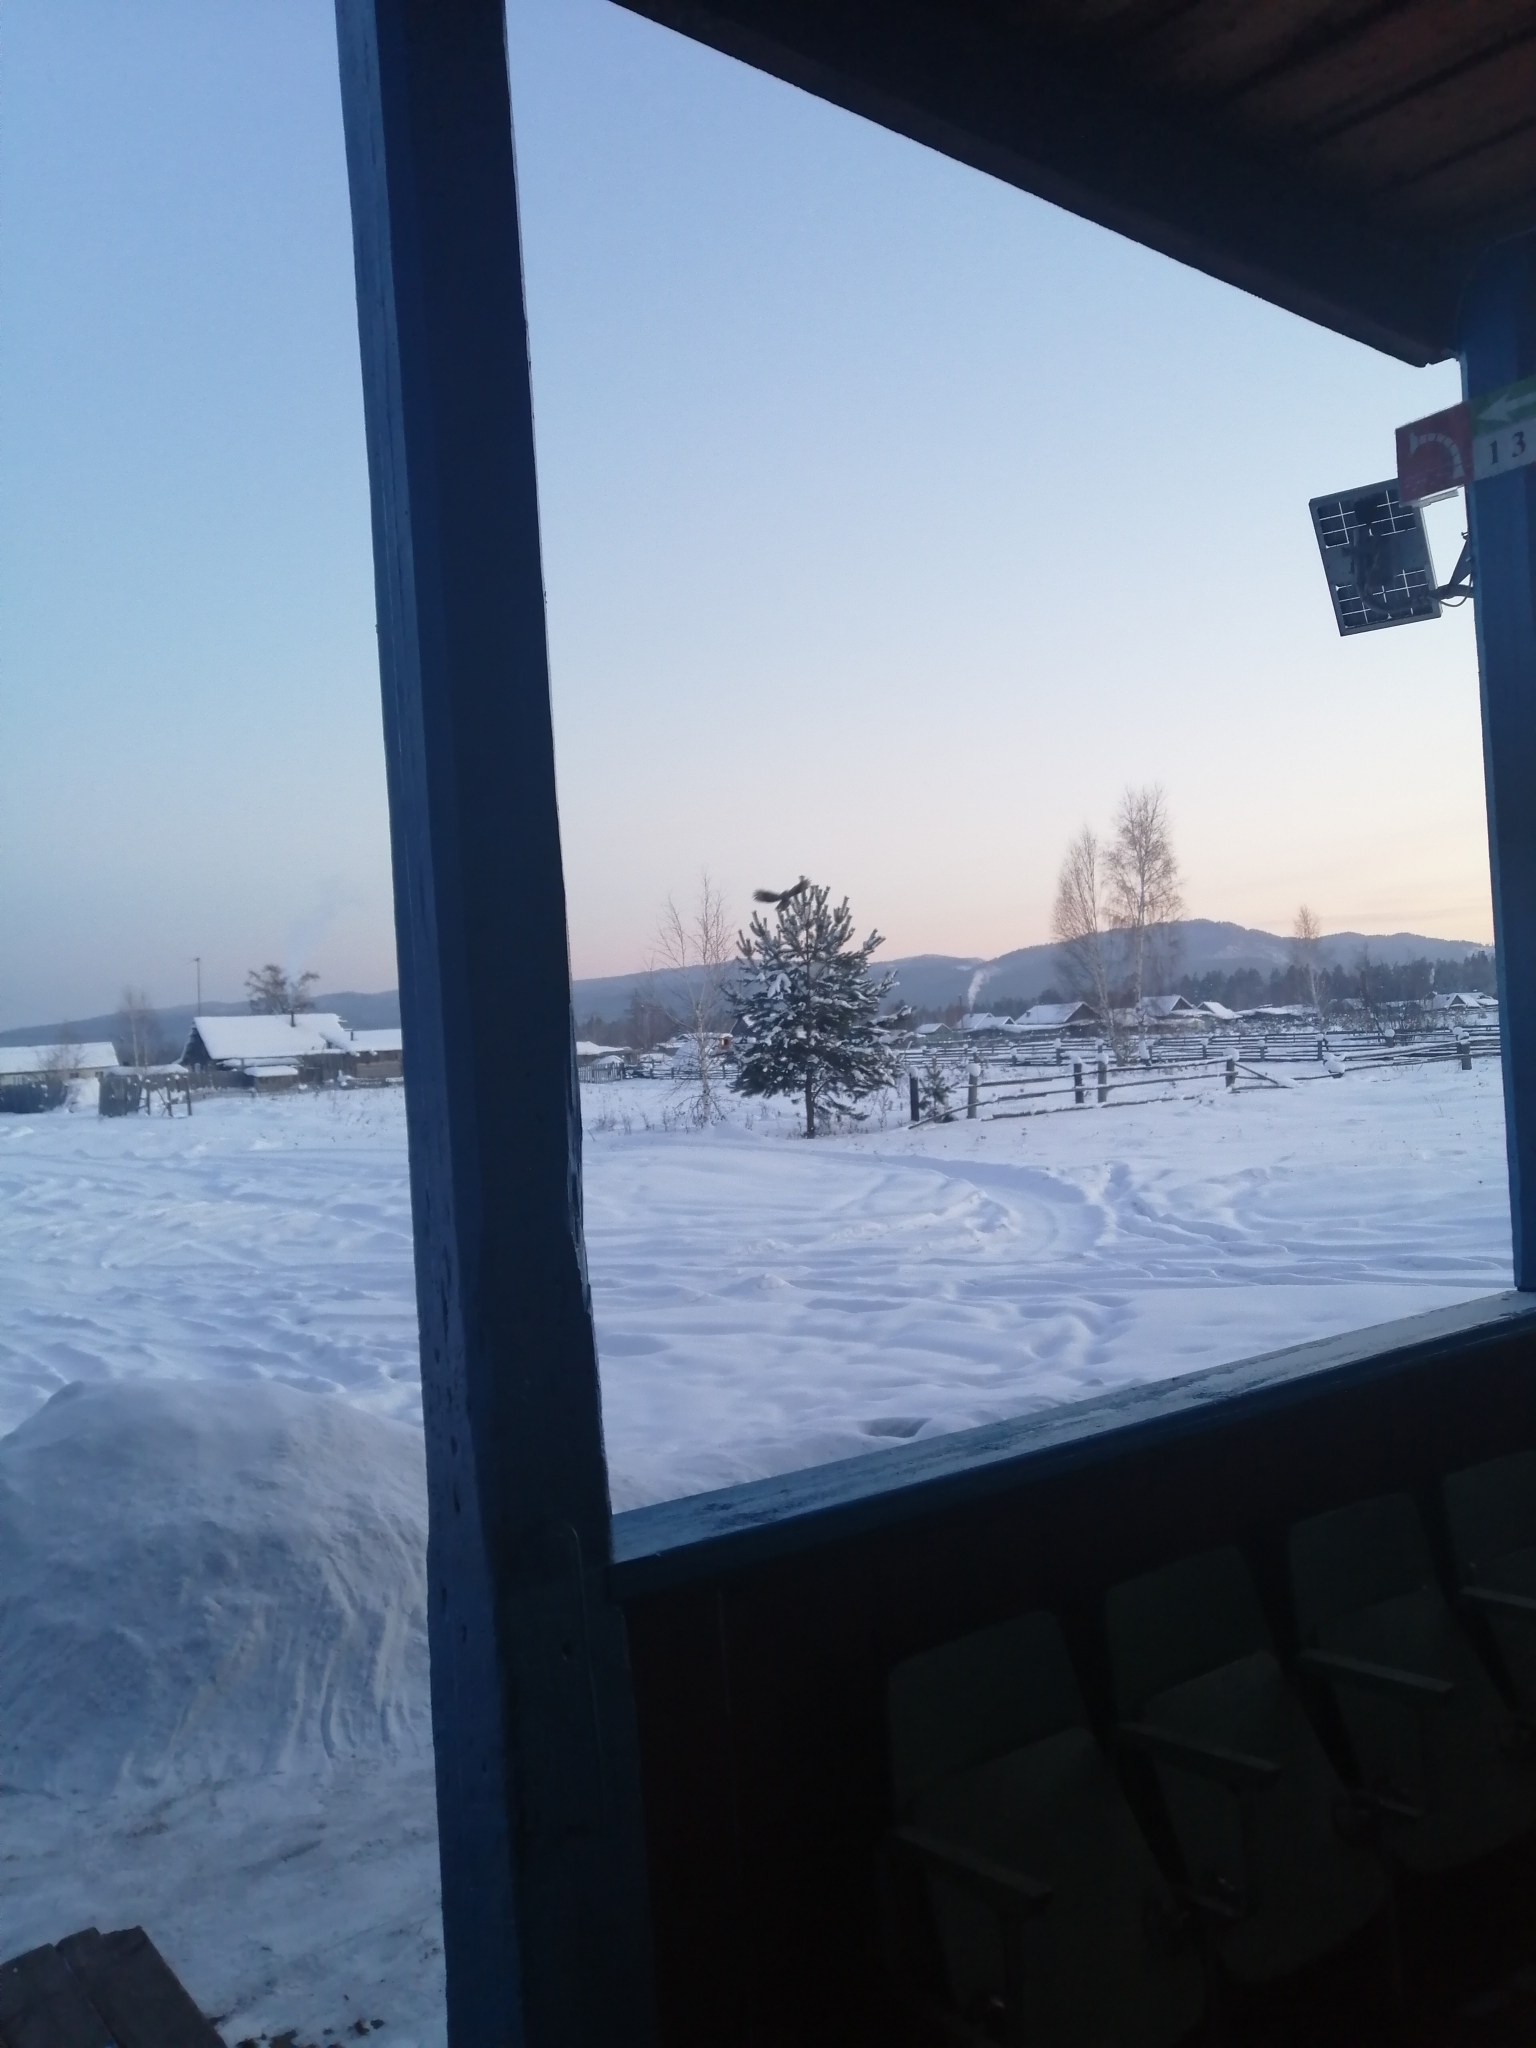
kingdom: Plantae
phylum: Tracheophyta
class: Pinopsida
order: Pinales
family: Pinaceae
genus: Pinus
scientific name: Pinus sylvestris
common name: Scots pine
